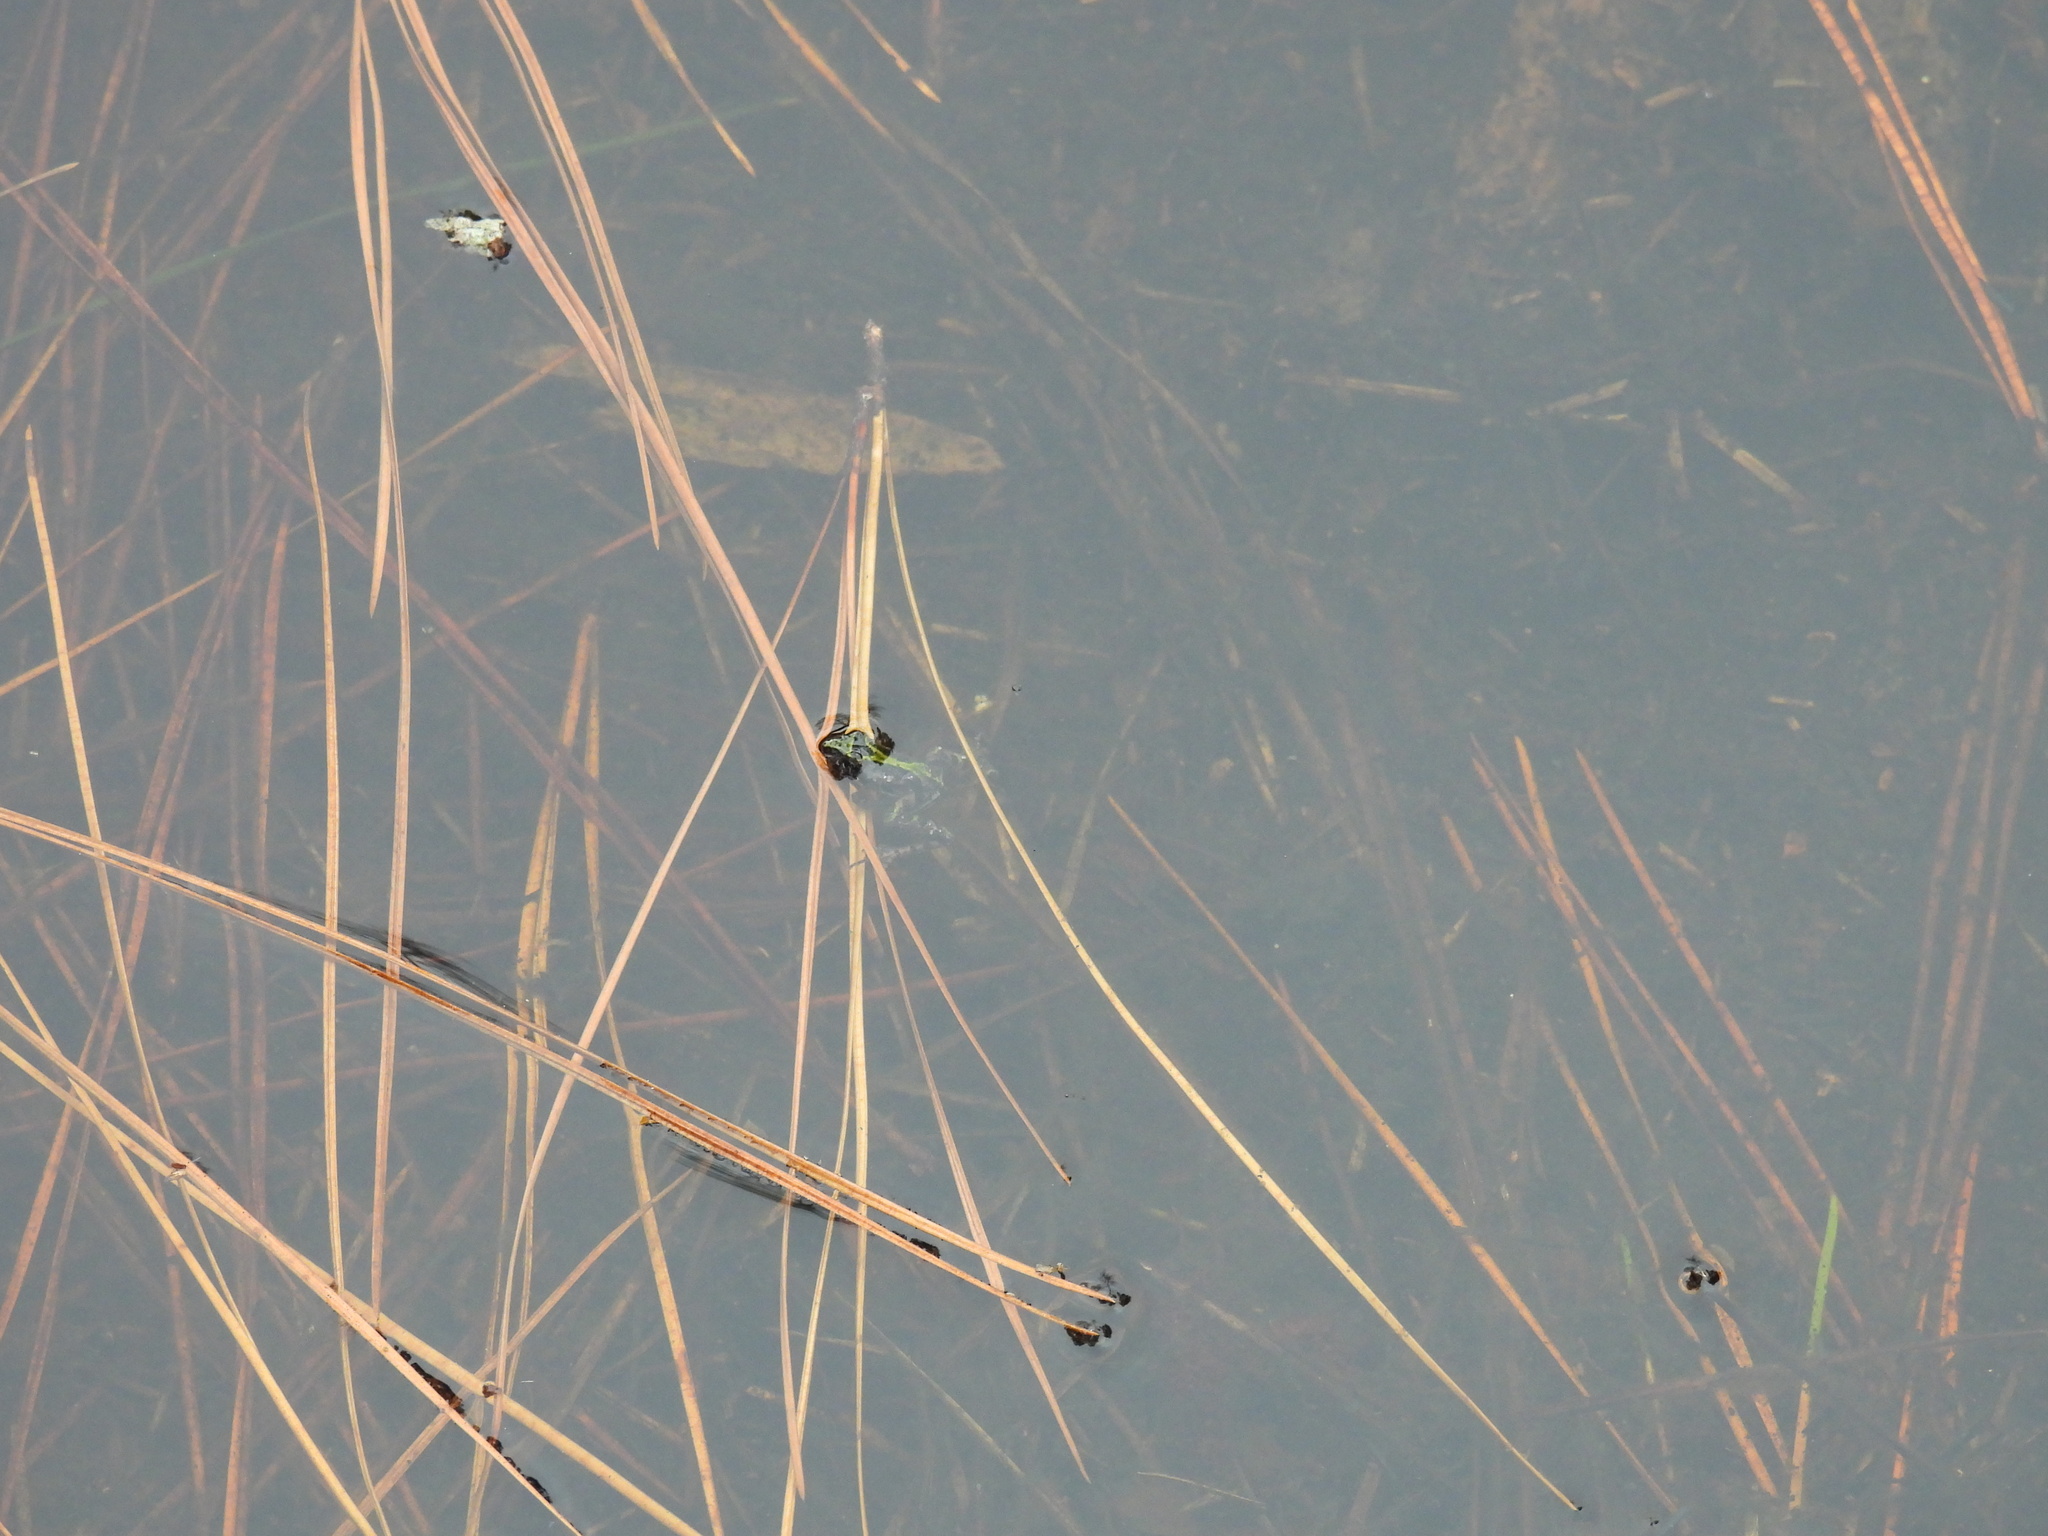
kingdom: Animalia
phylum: Chordata
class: Amphibia
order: Anura
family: Hylidae
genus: Acris
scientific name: Acris gryllus
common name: Southern cricket frog
